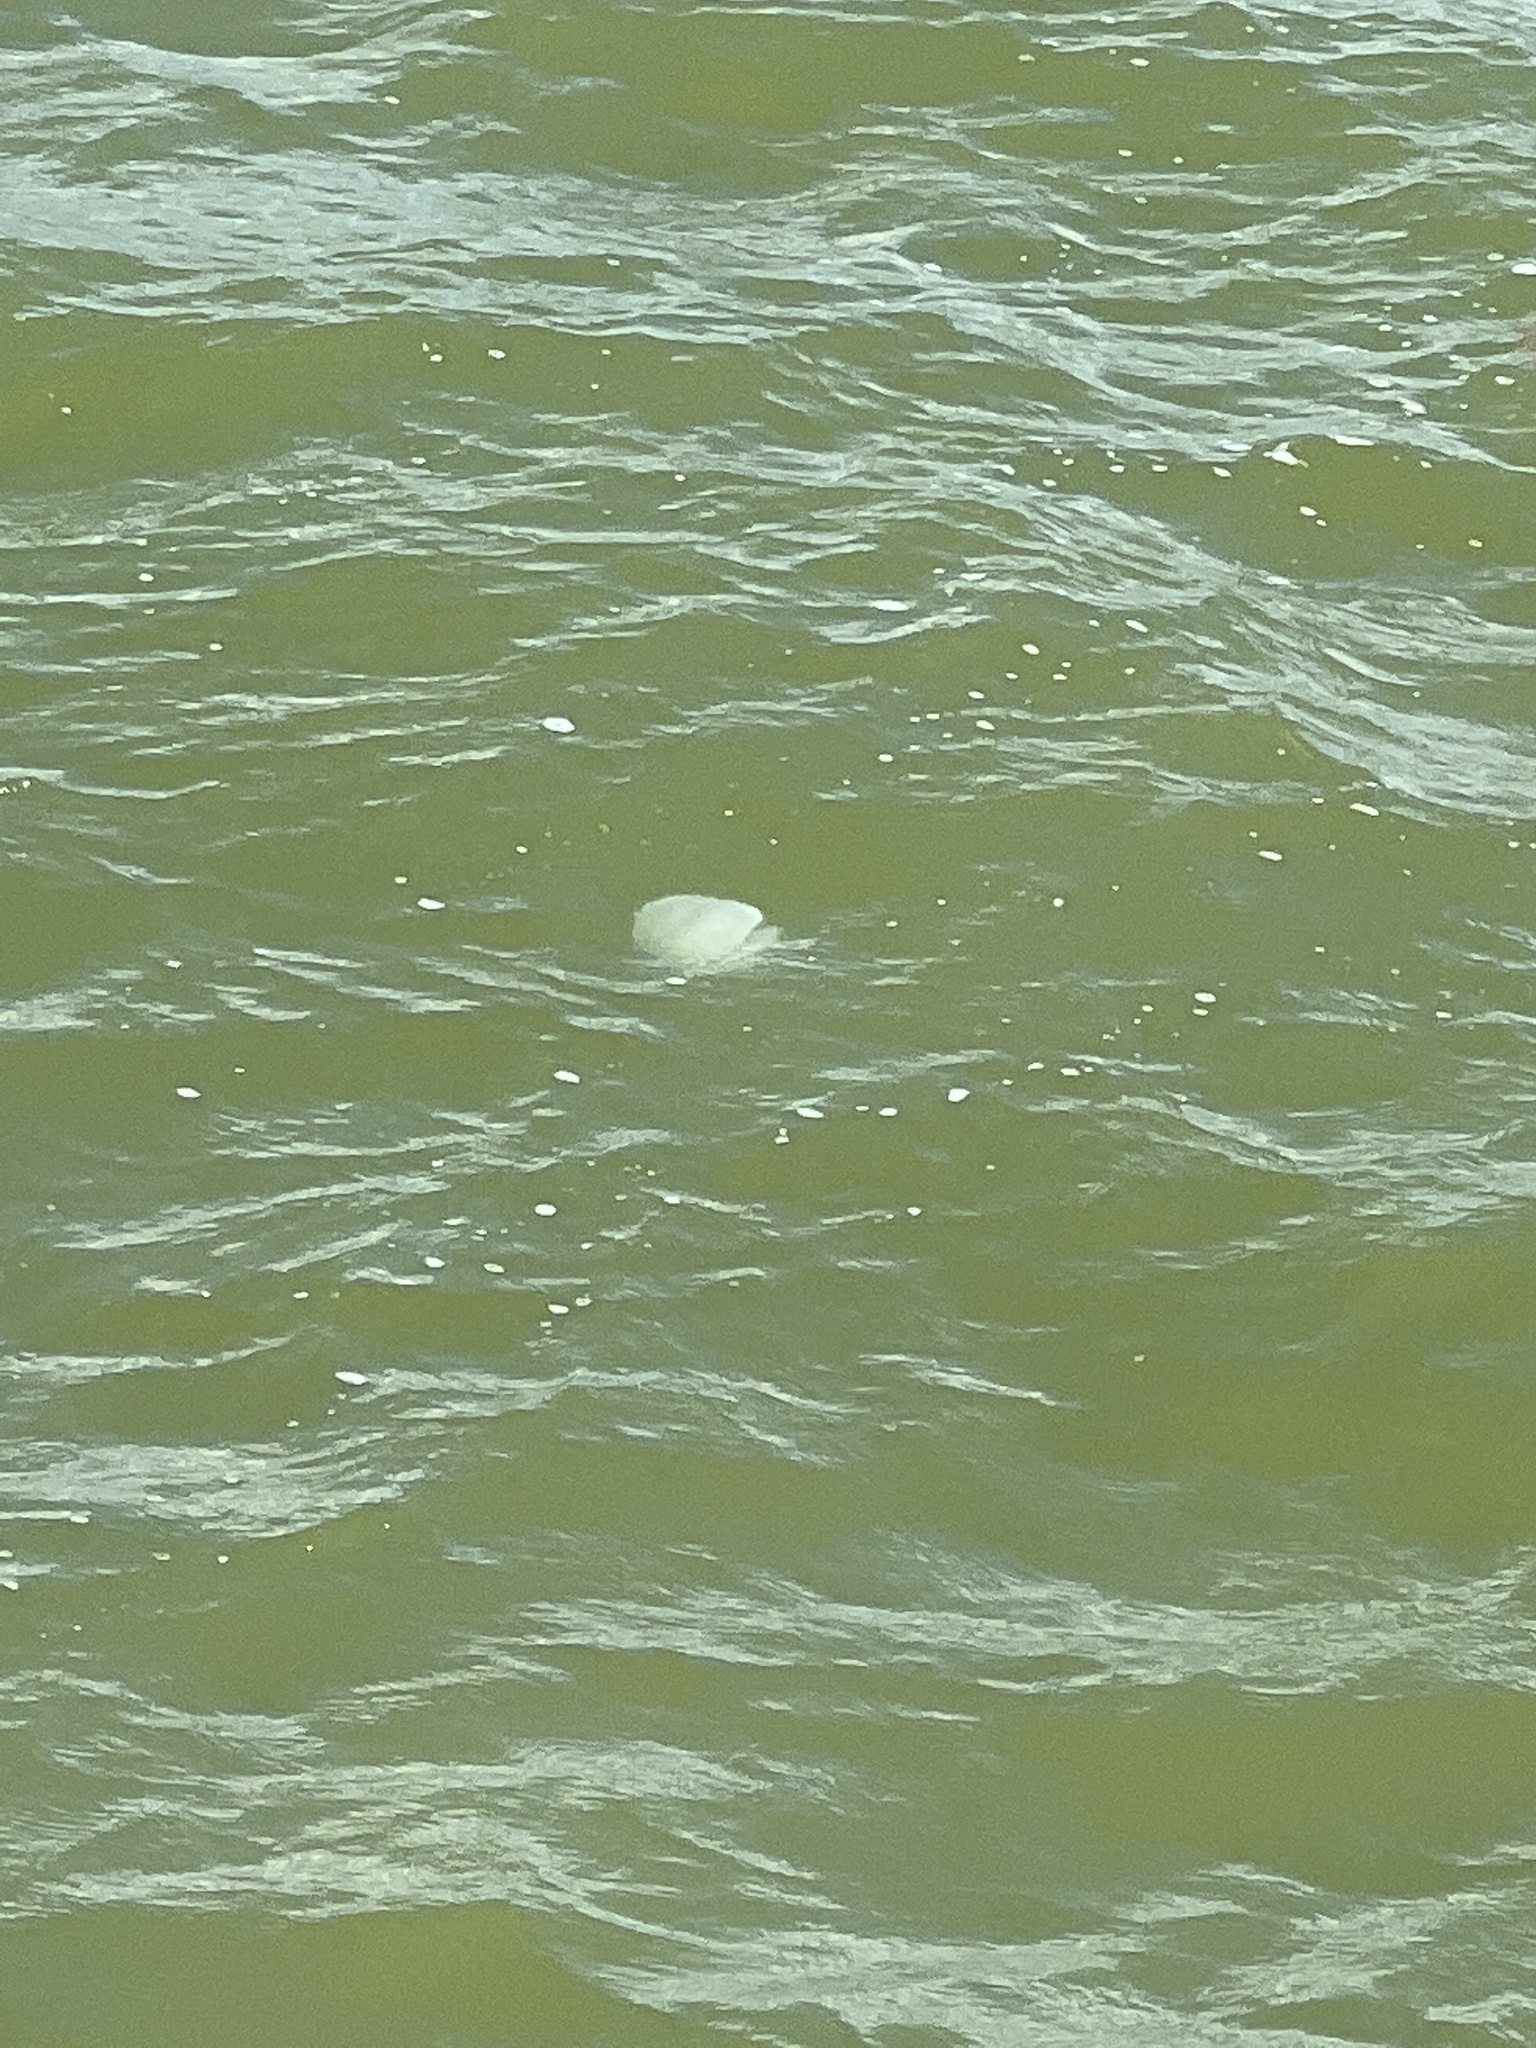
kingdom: Animalia
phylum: Cnidaria
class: Scyphozoa
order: Rhizostomeae
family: Stomolophidae
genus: Stomolophus
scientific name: Stomolophus meleagris
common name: Cabbagehead
